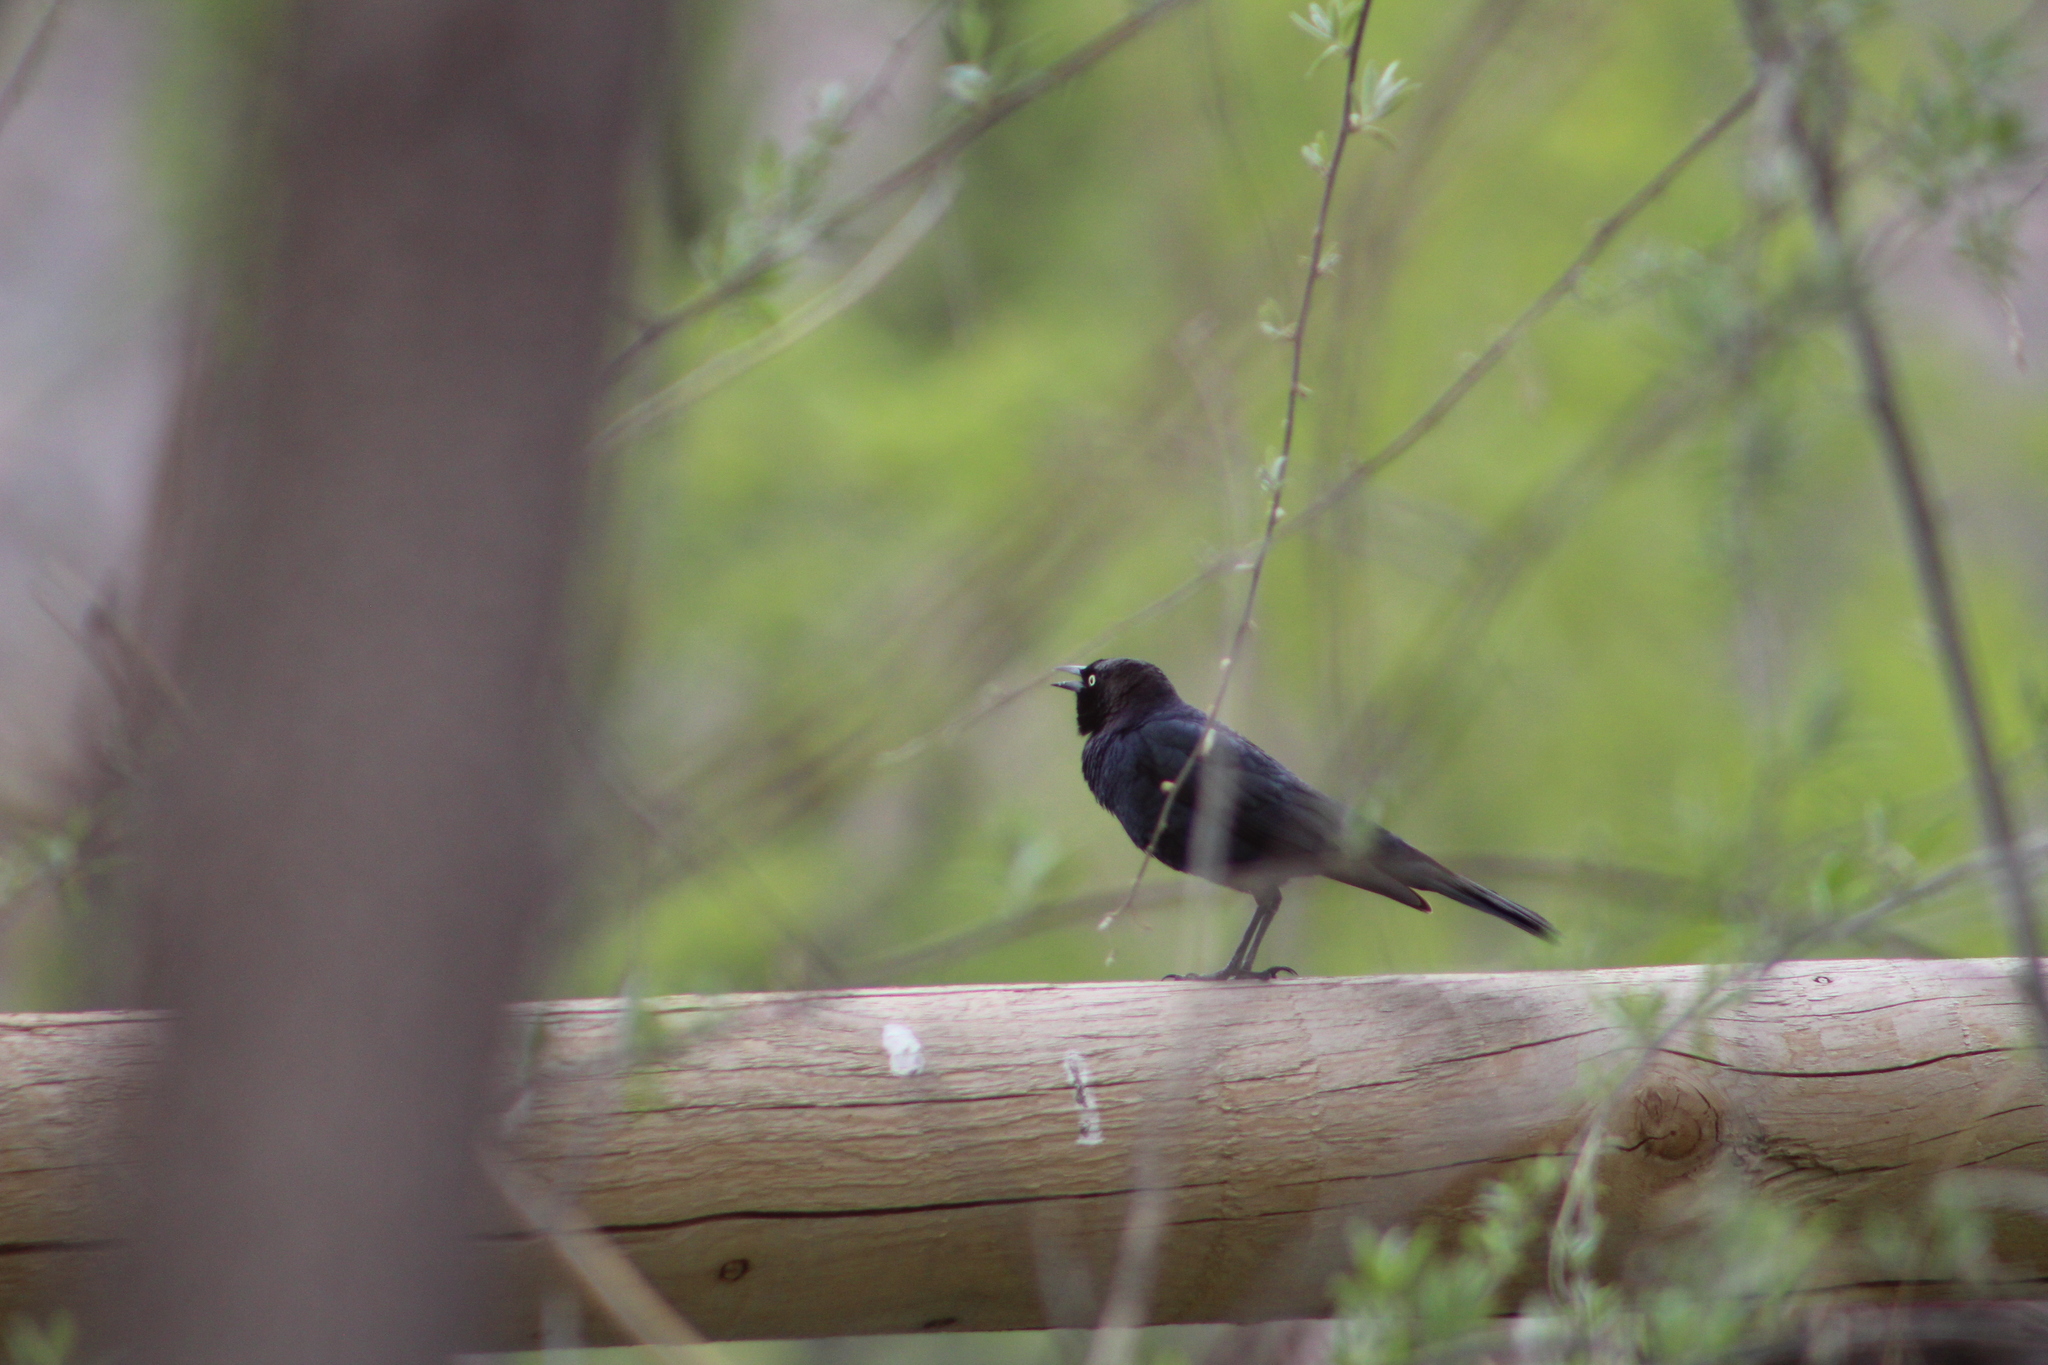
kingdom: Animalia
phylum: Chordata
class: Aves
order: Passeriformes
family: Icteridae
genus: Euphagus
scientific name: Euphagus cyanocephalus
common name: Brewer's blackbird
